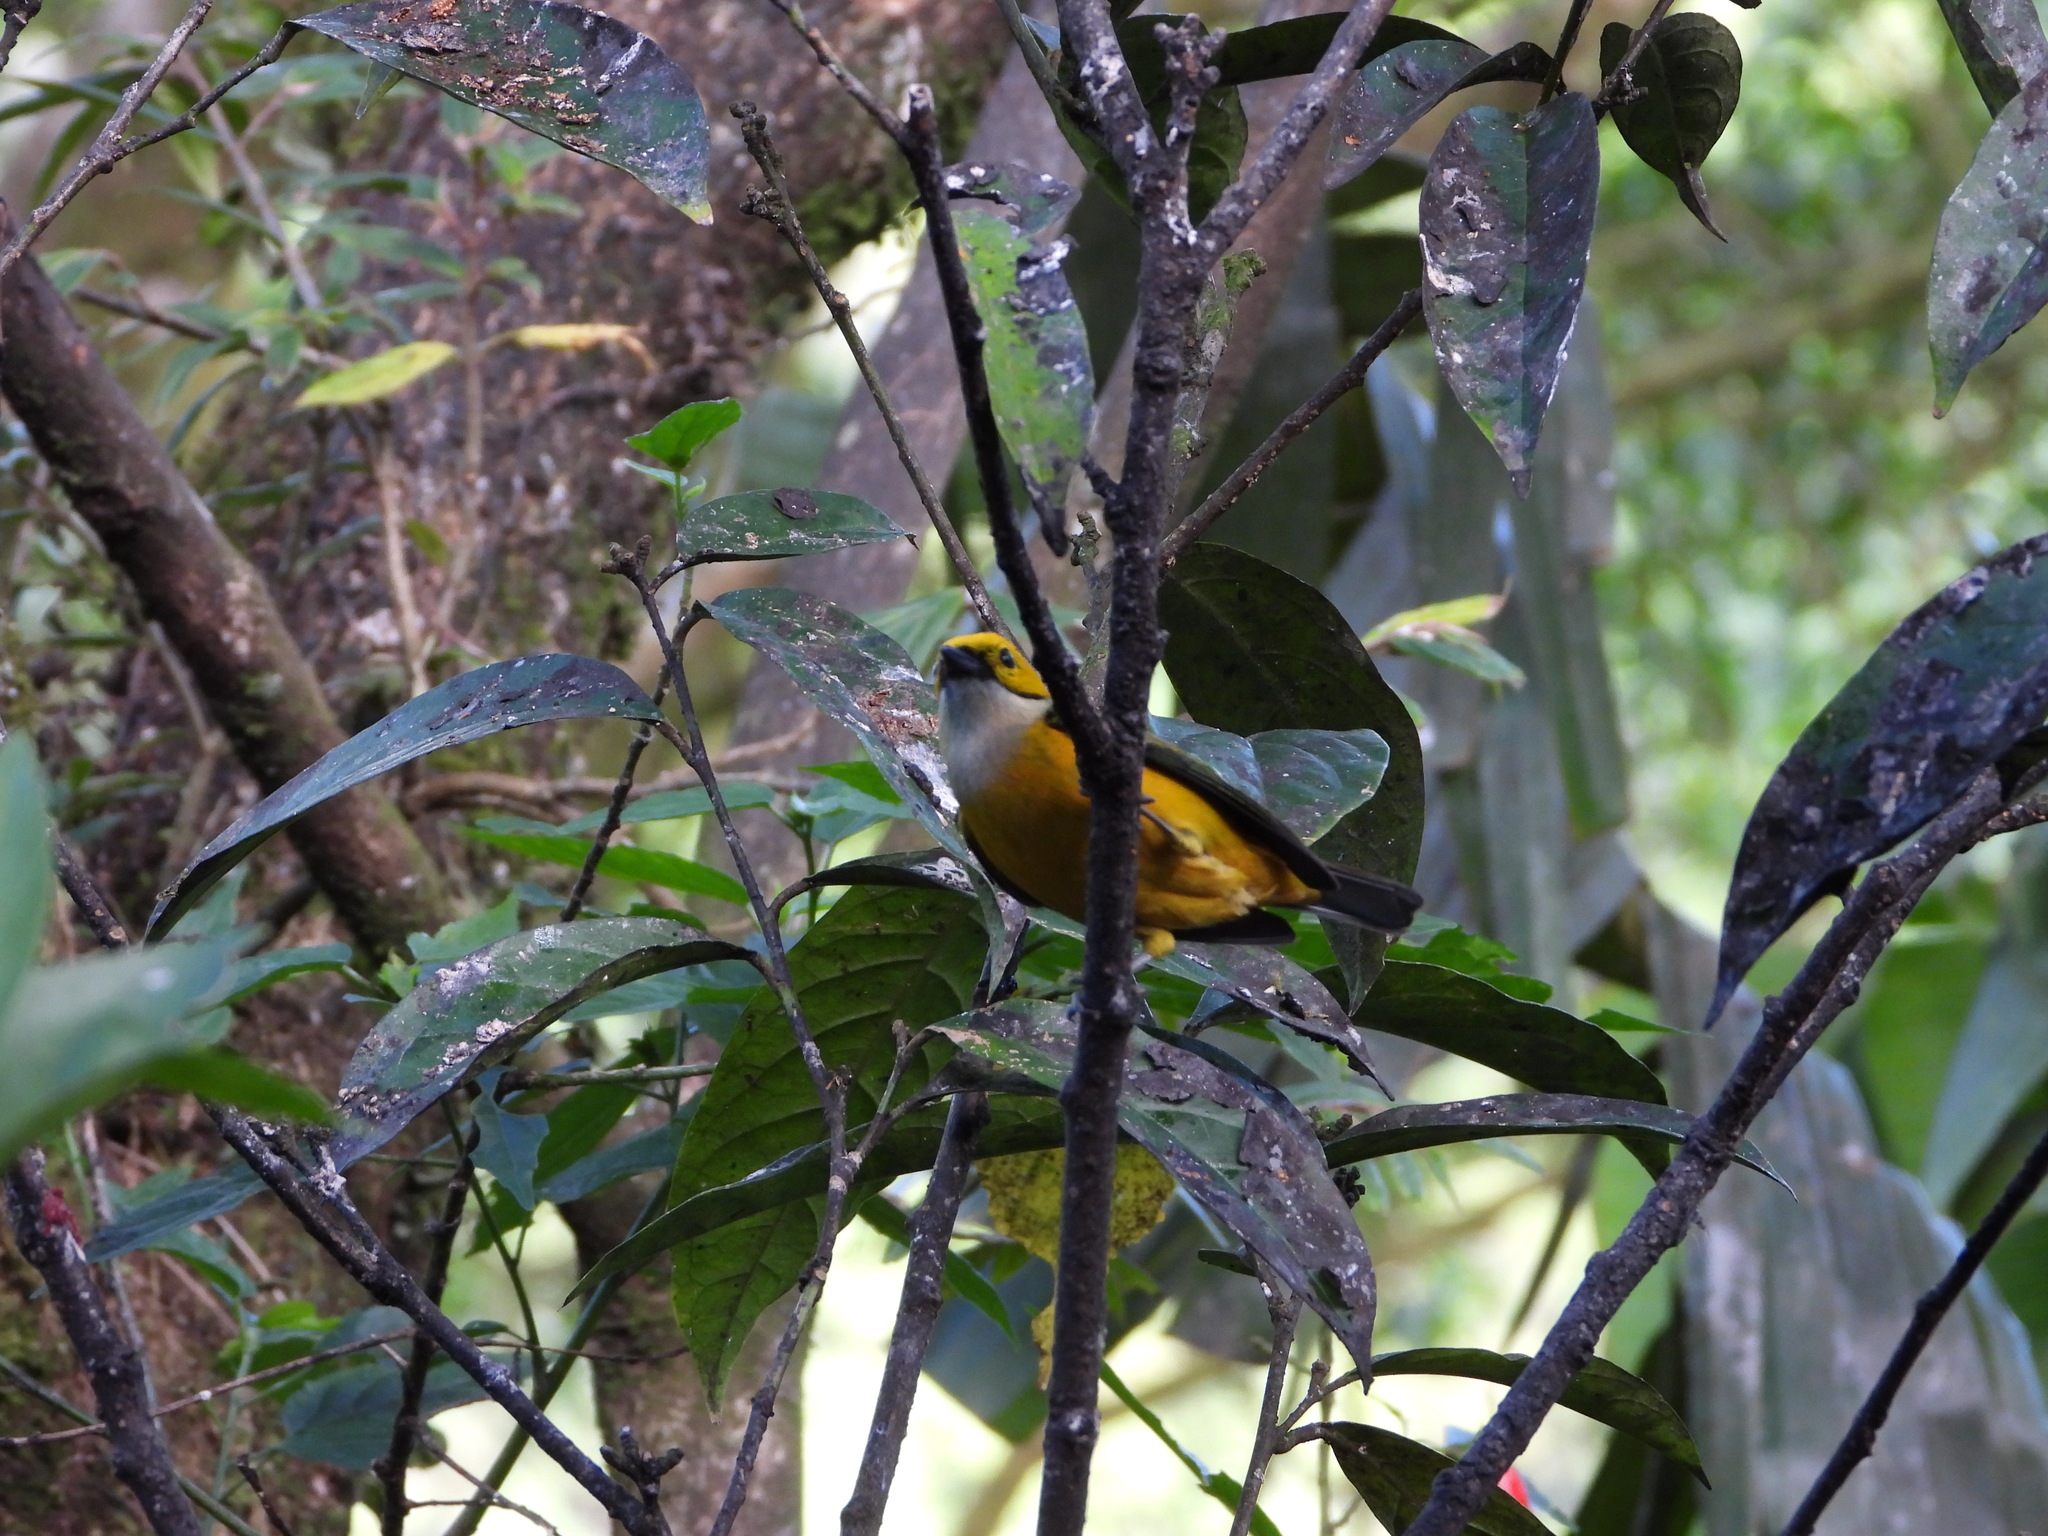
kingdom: Animalia
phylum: Chordata
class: Aves
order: Passeriformes
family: Thraupidae
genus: Tangara
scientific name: Tangara icterocephala
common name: Silver-throated tanager
